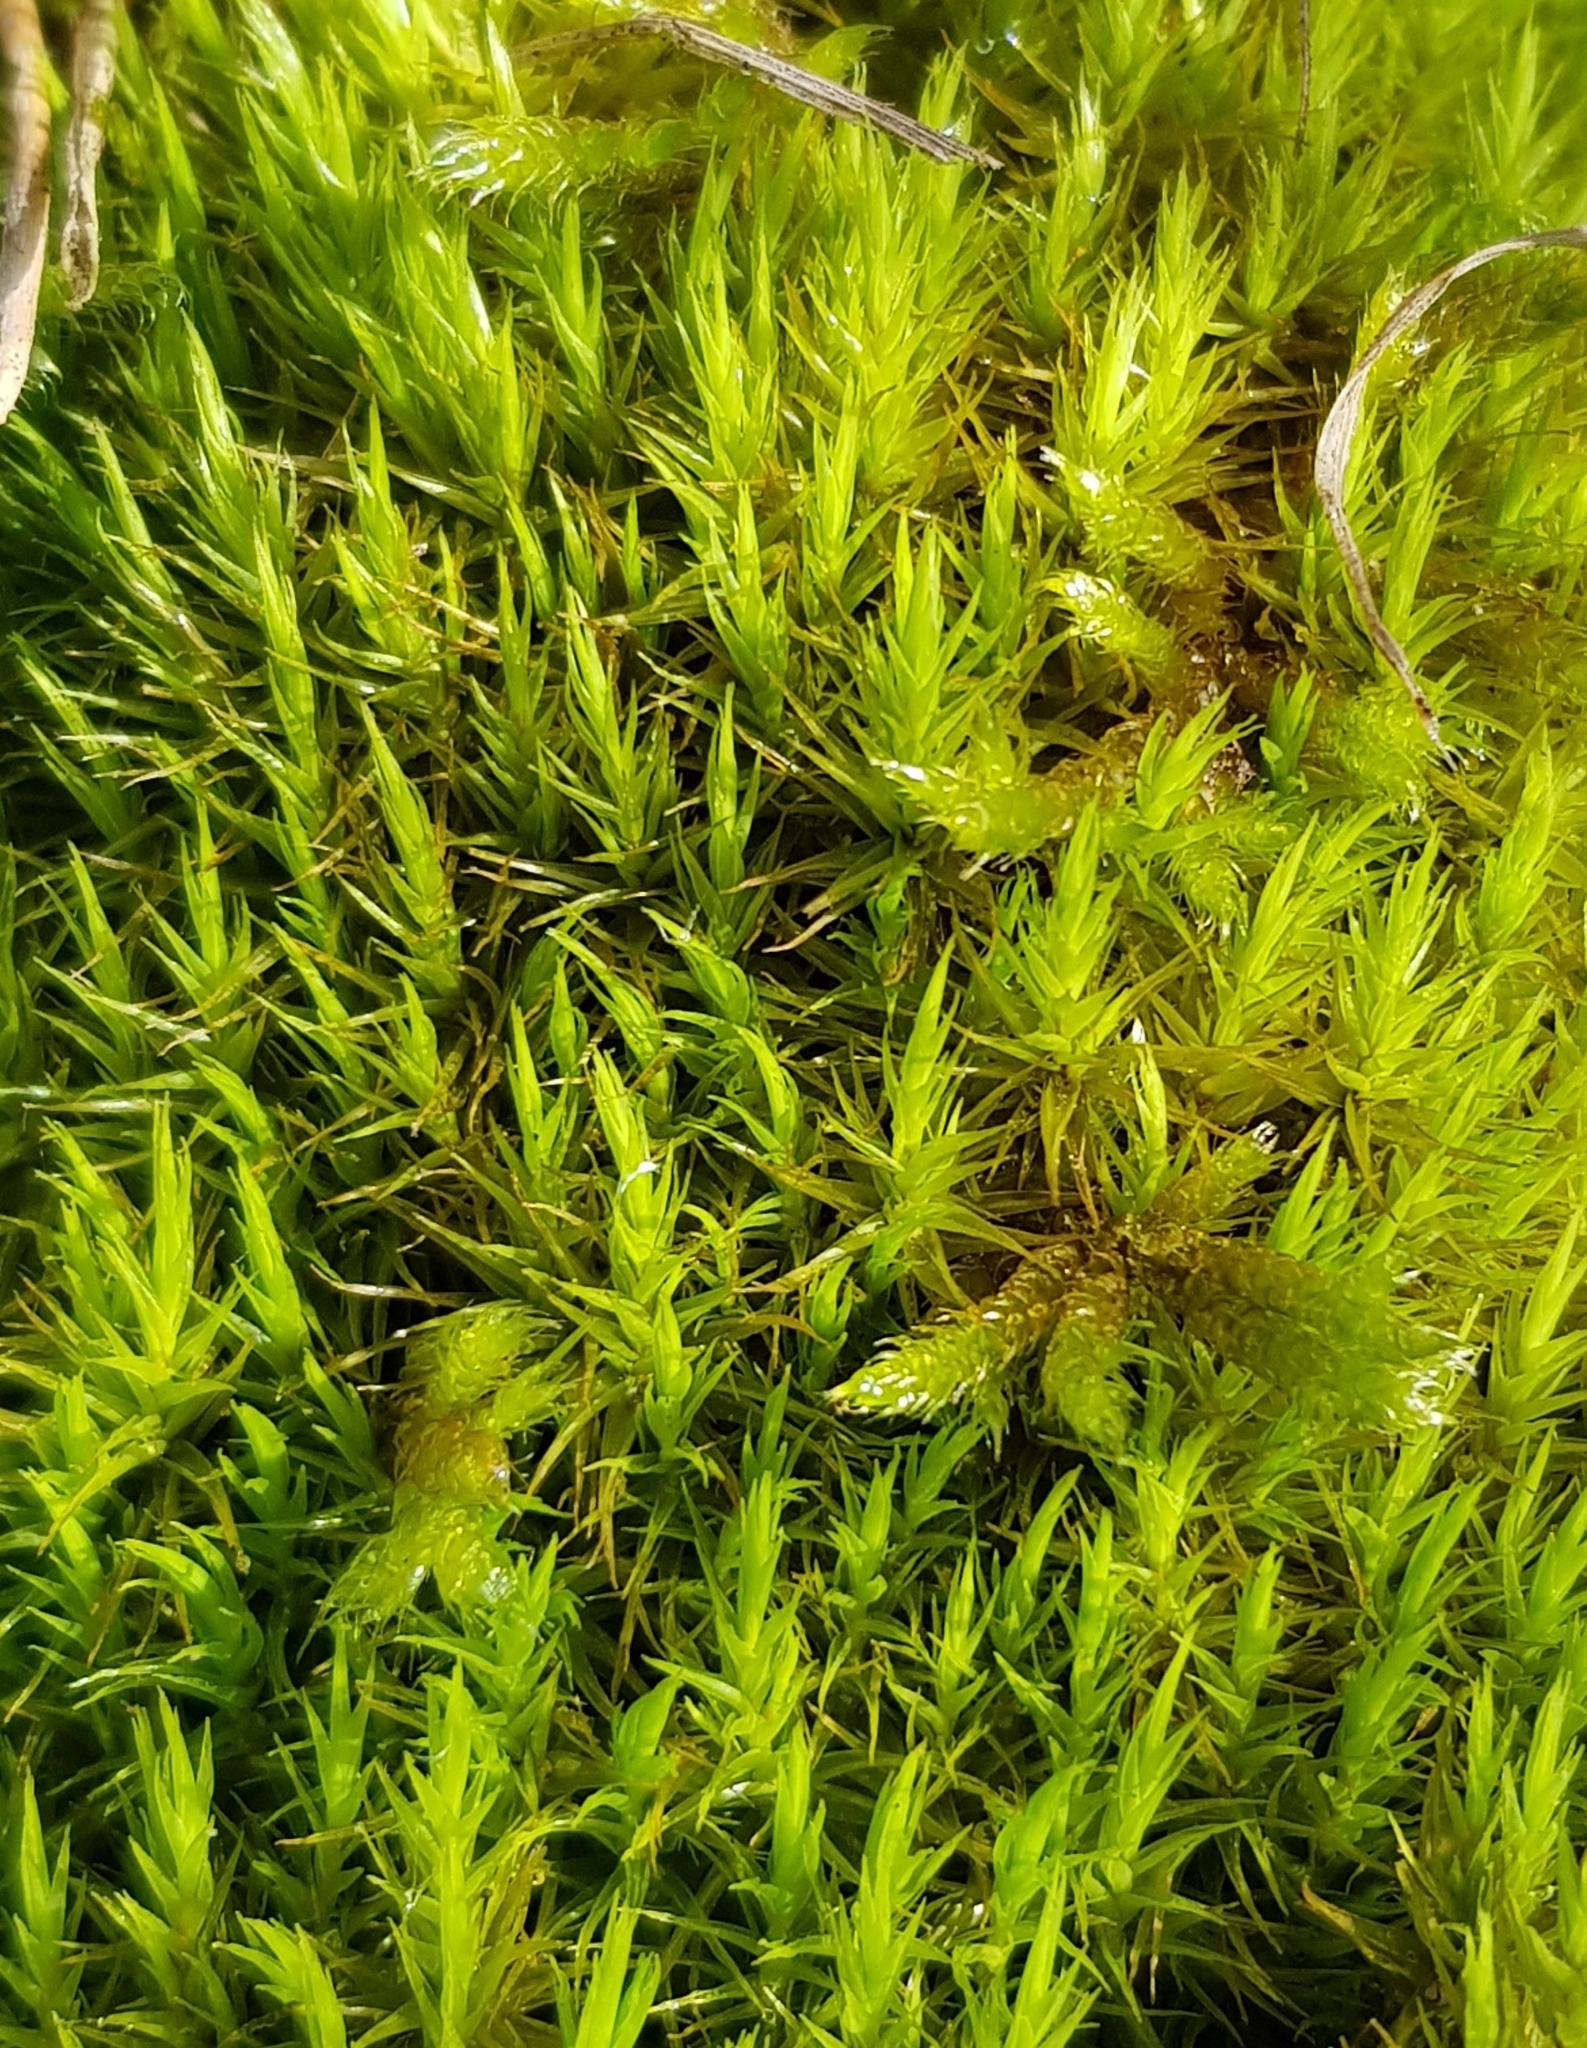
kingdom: Plantae
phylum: Bryophyta
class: Bryopsida
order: Dicranales
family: Dicranaceae
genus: Dicranum
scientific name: Dicranum scoparium
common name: Broom fork-moss
